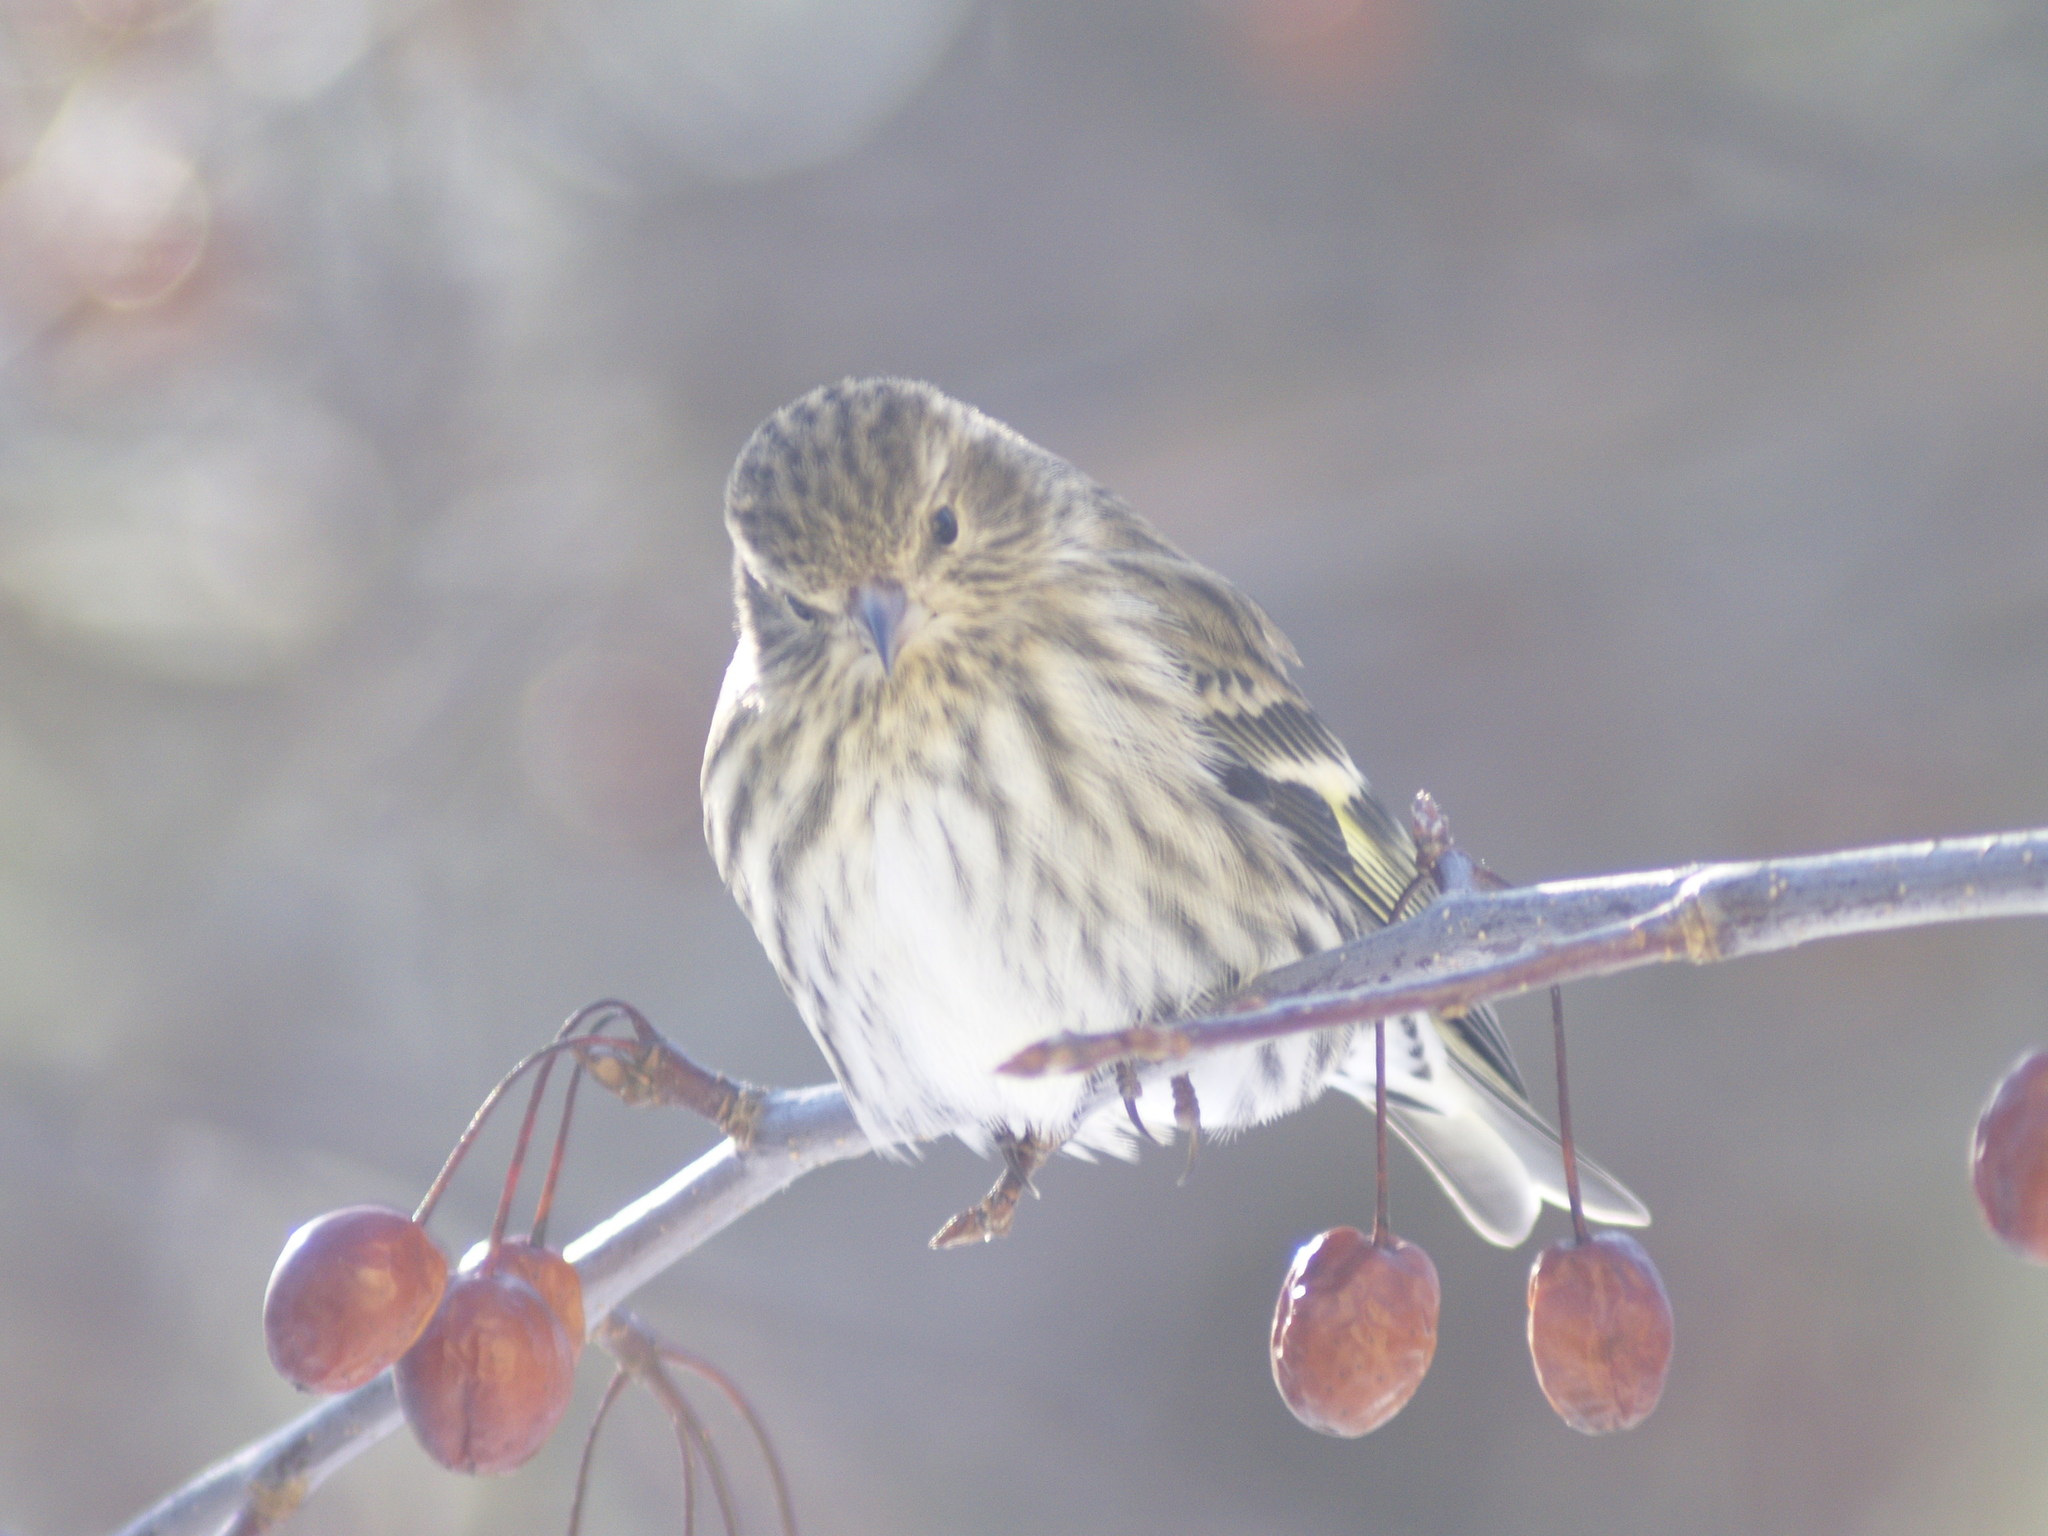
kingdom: Animalia
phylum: Chordata
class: Aves
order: Passeriformes
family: Fringillidae
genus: Spinus
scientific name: Spinus pinus
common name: Pine siskin
